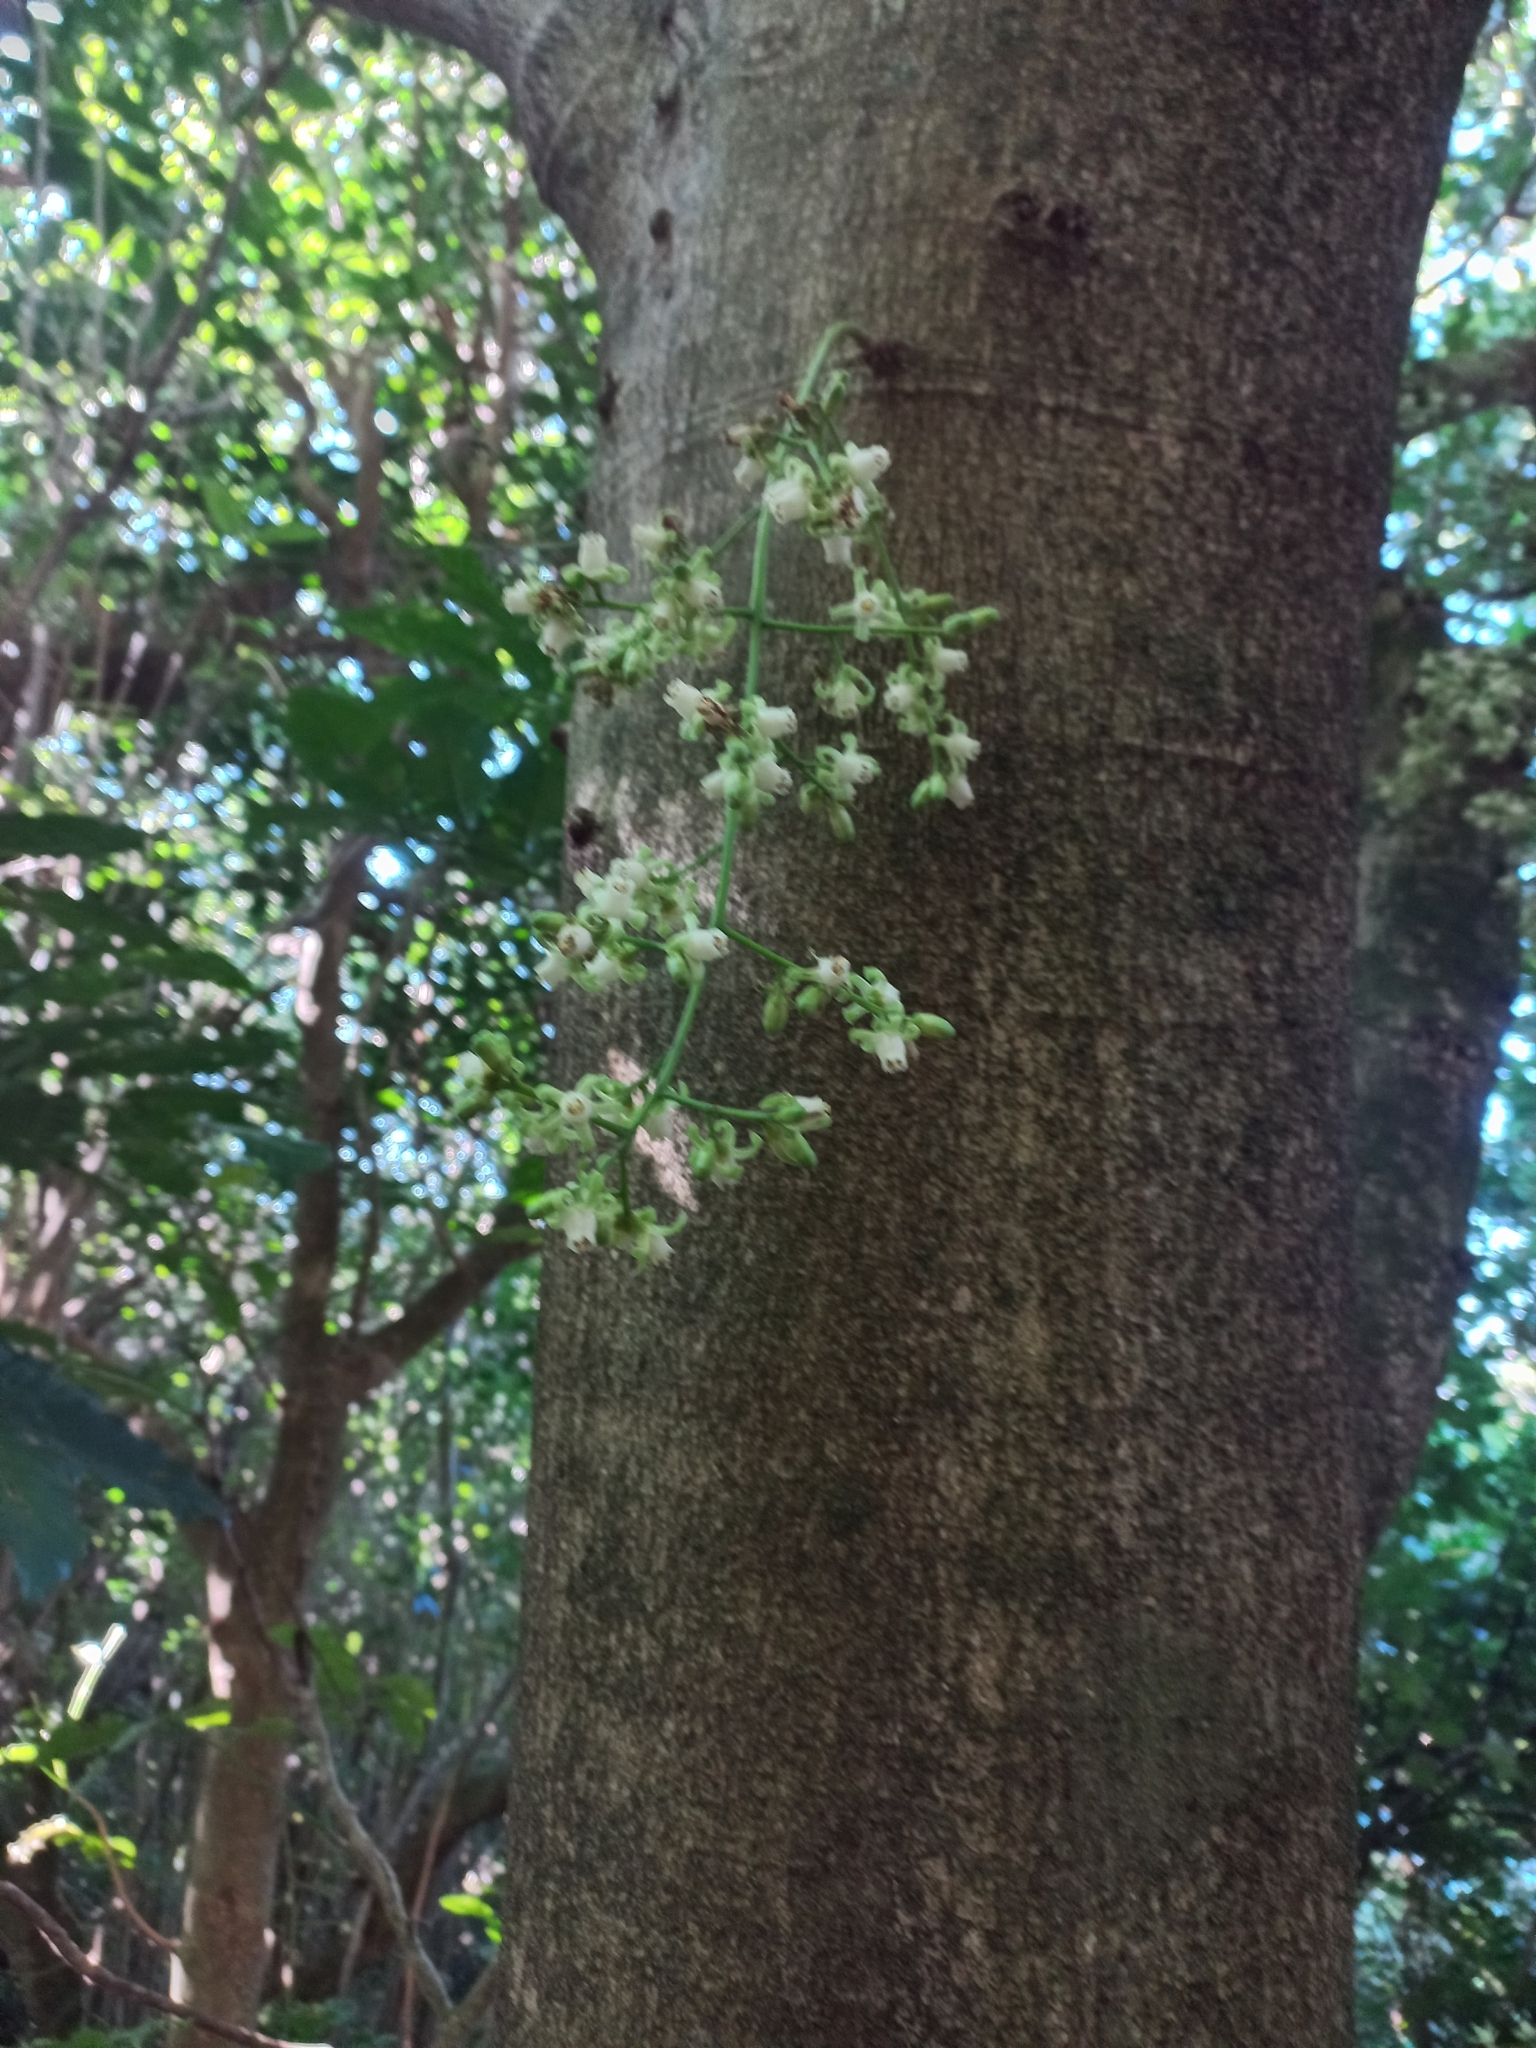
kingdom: Plantae
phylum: Tracheophyta
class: Magnoliopsida
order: Sapindales
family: Meliaceae
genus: Didymocheton
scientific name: Didymocheton spectabilis
